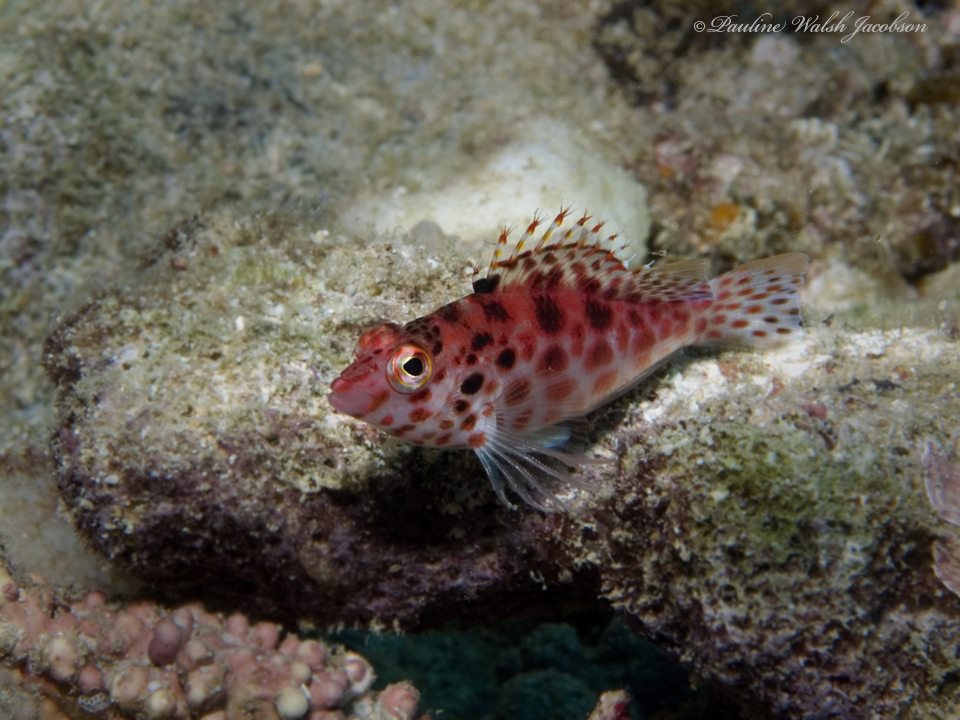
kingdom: Animalia
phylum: Chordata
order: Perciformes
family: Cirrhitidae
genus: Cirrhitichthys
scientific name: Cirrhitichthys oxycephalus
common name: Spotted hawkfish
